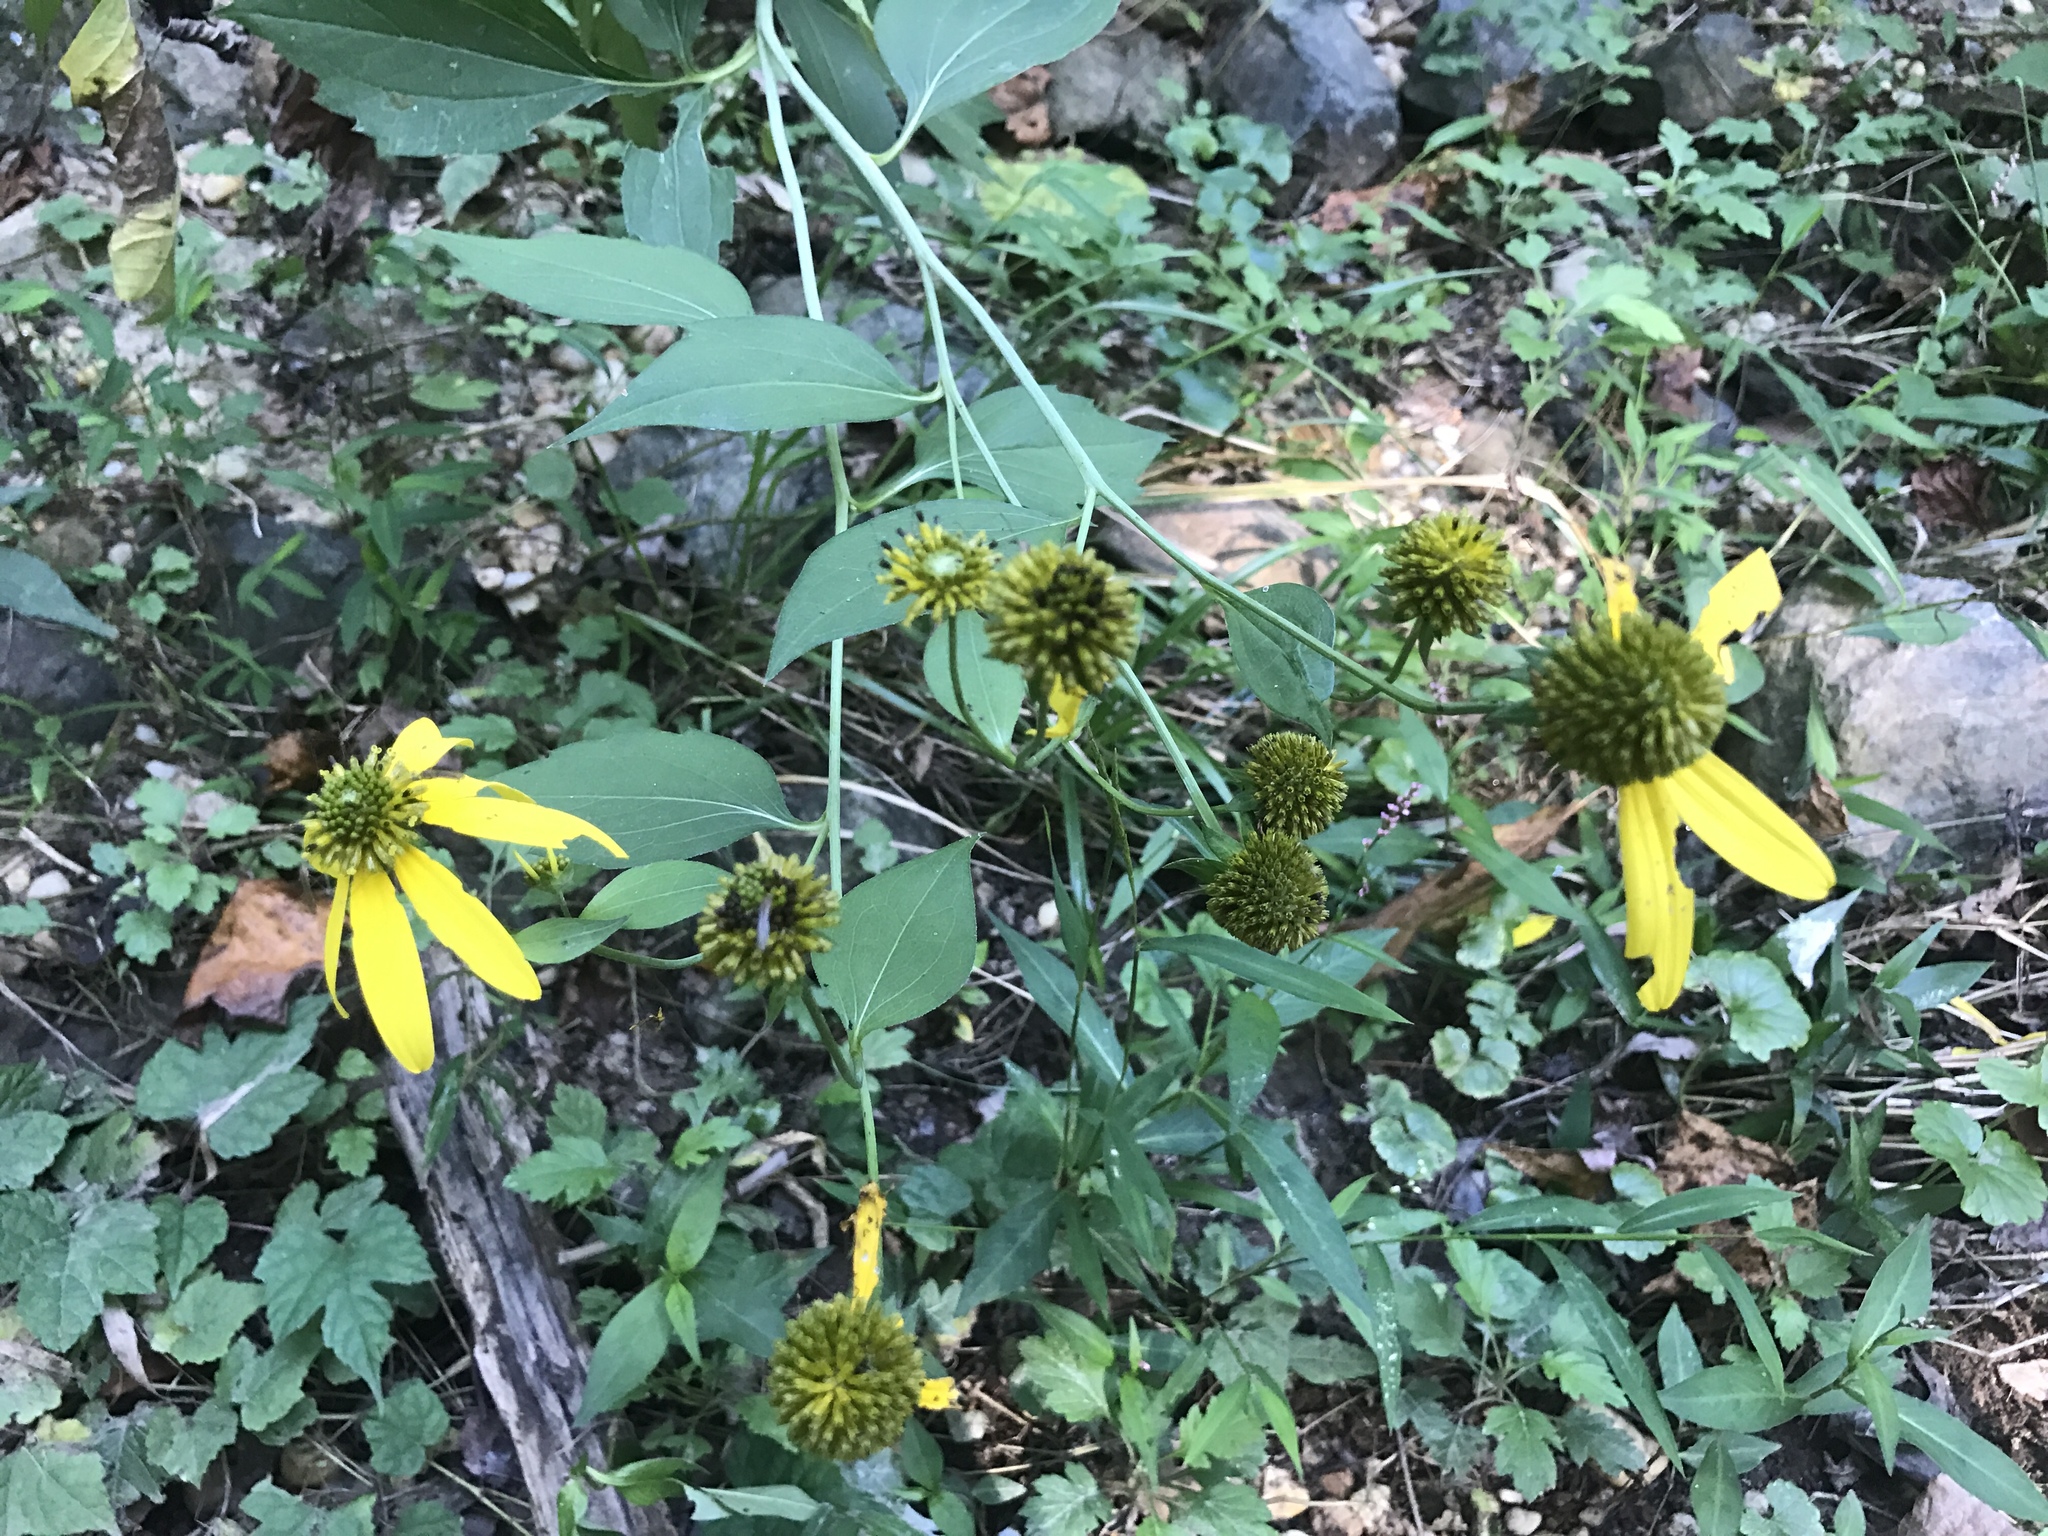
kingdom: Plantae
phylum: Tracheophyta
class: Magnoliopsida
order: Asterales
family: Asteraceae
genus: Rudbeckia
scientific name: Rudbeckia laciniata
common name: Coneflower
